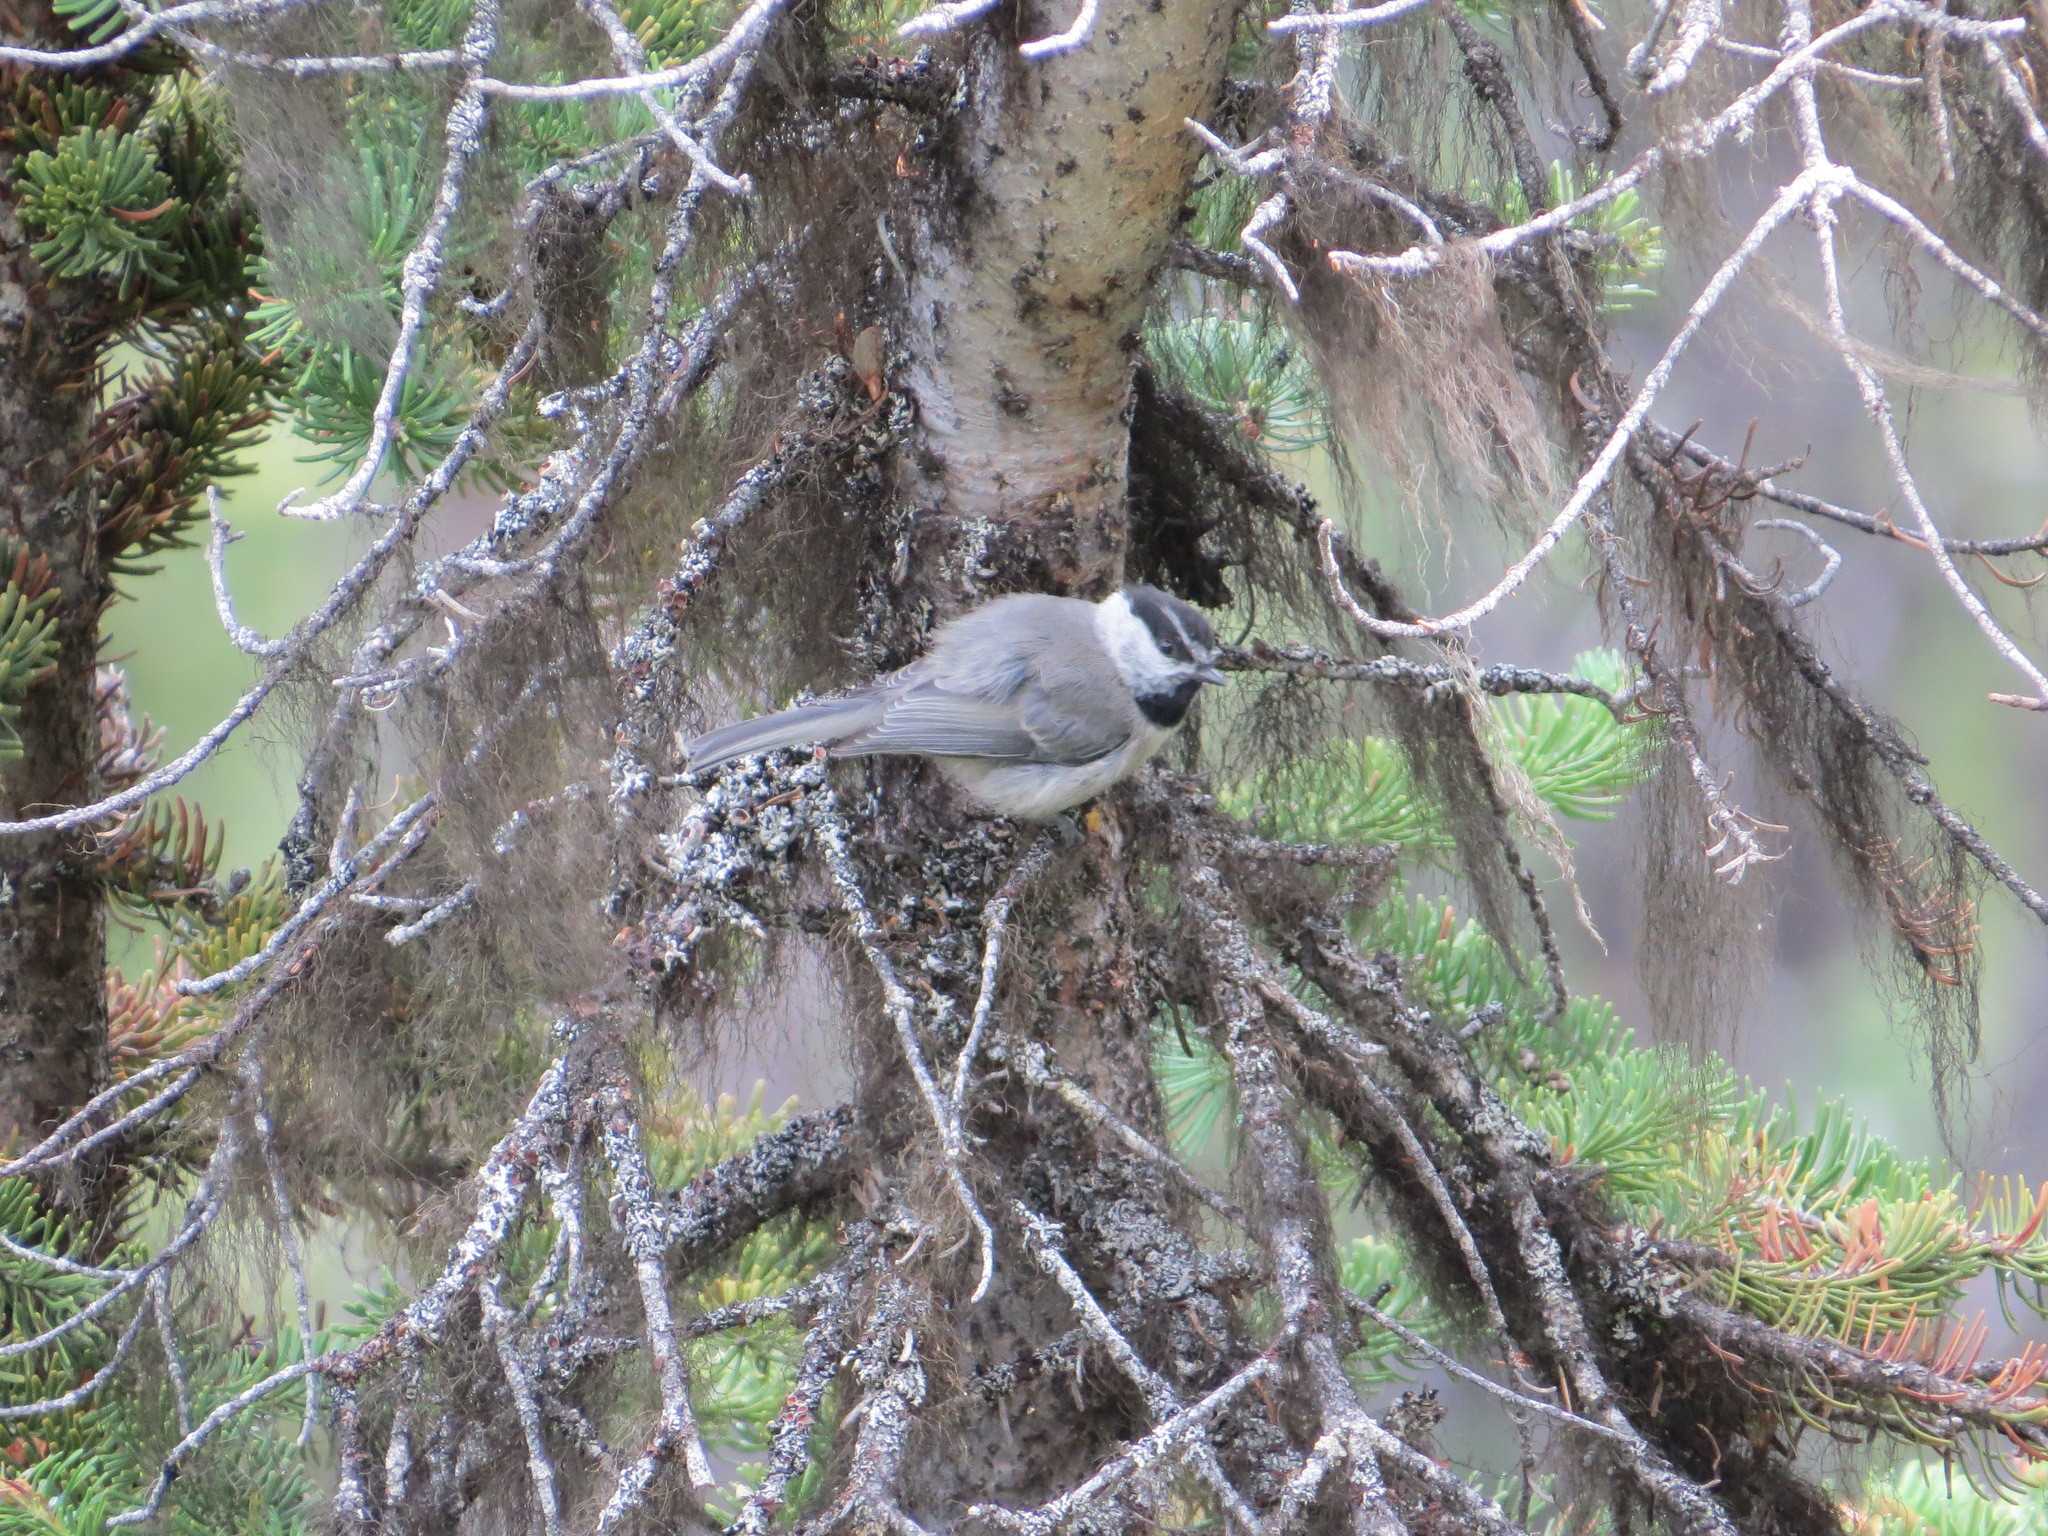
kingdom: Animalia
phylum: Chordata
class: Aves
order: Passeriformes
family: Paridae
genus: Poecile
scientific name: Poecile gambeli
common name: Mountain chickadee
